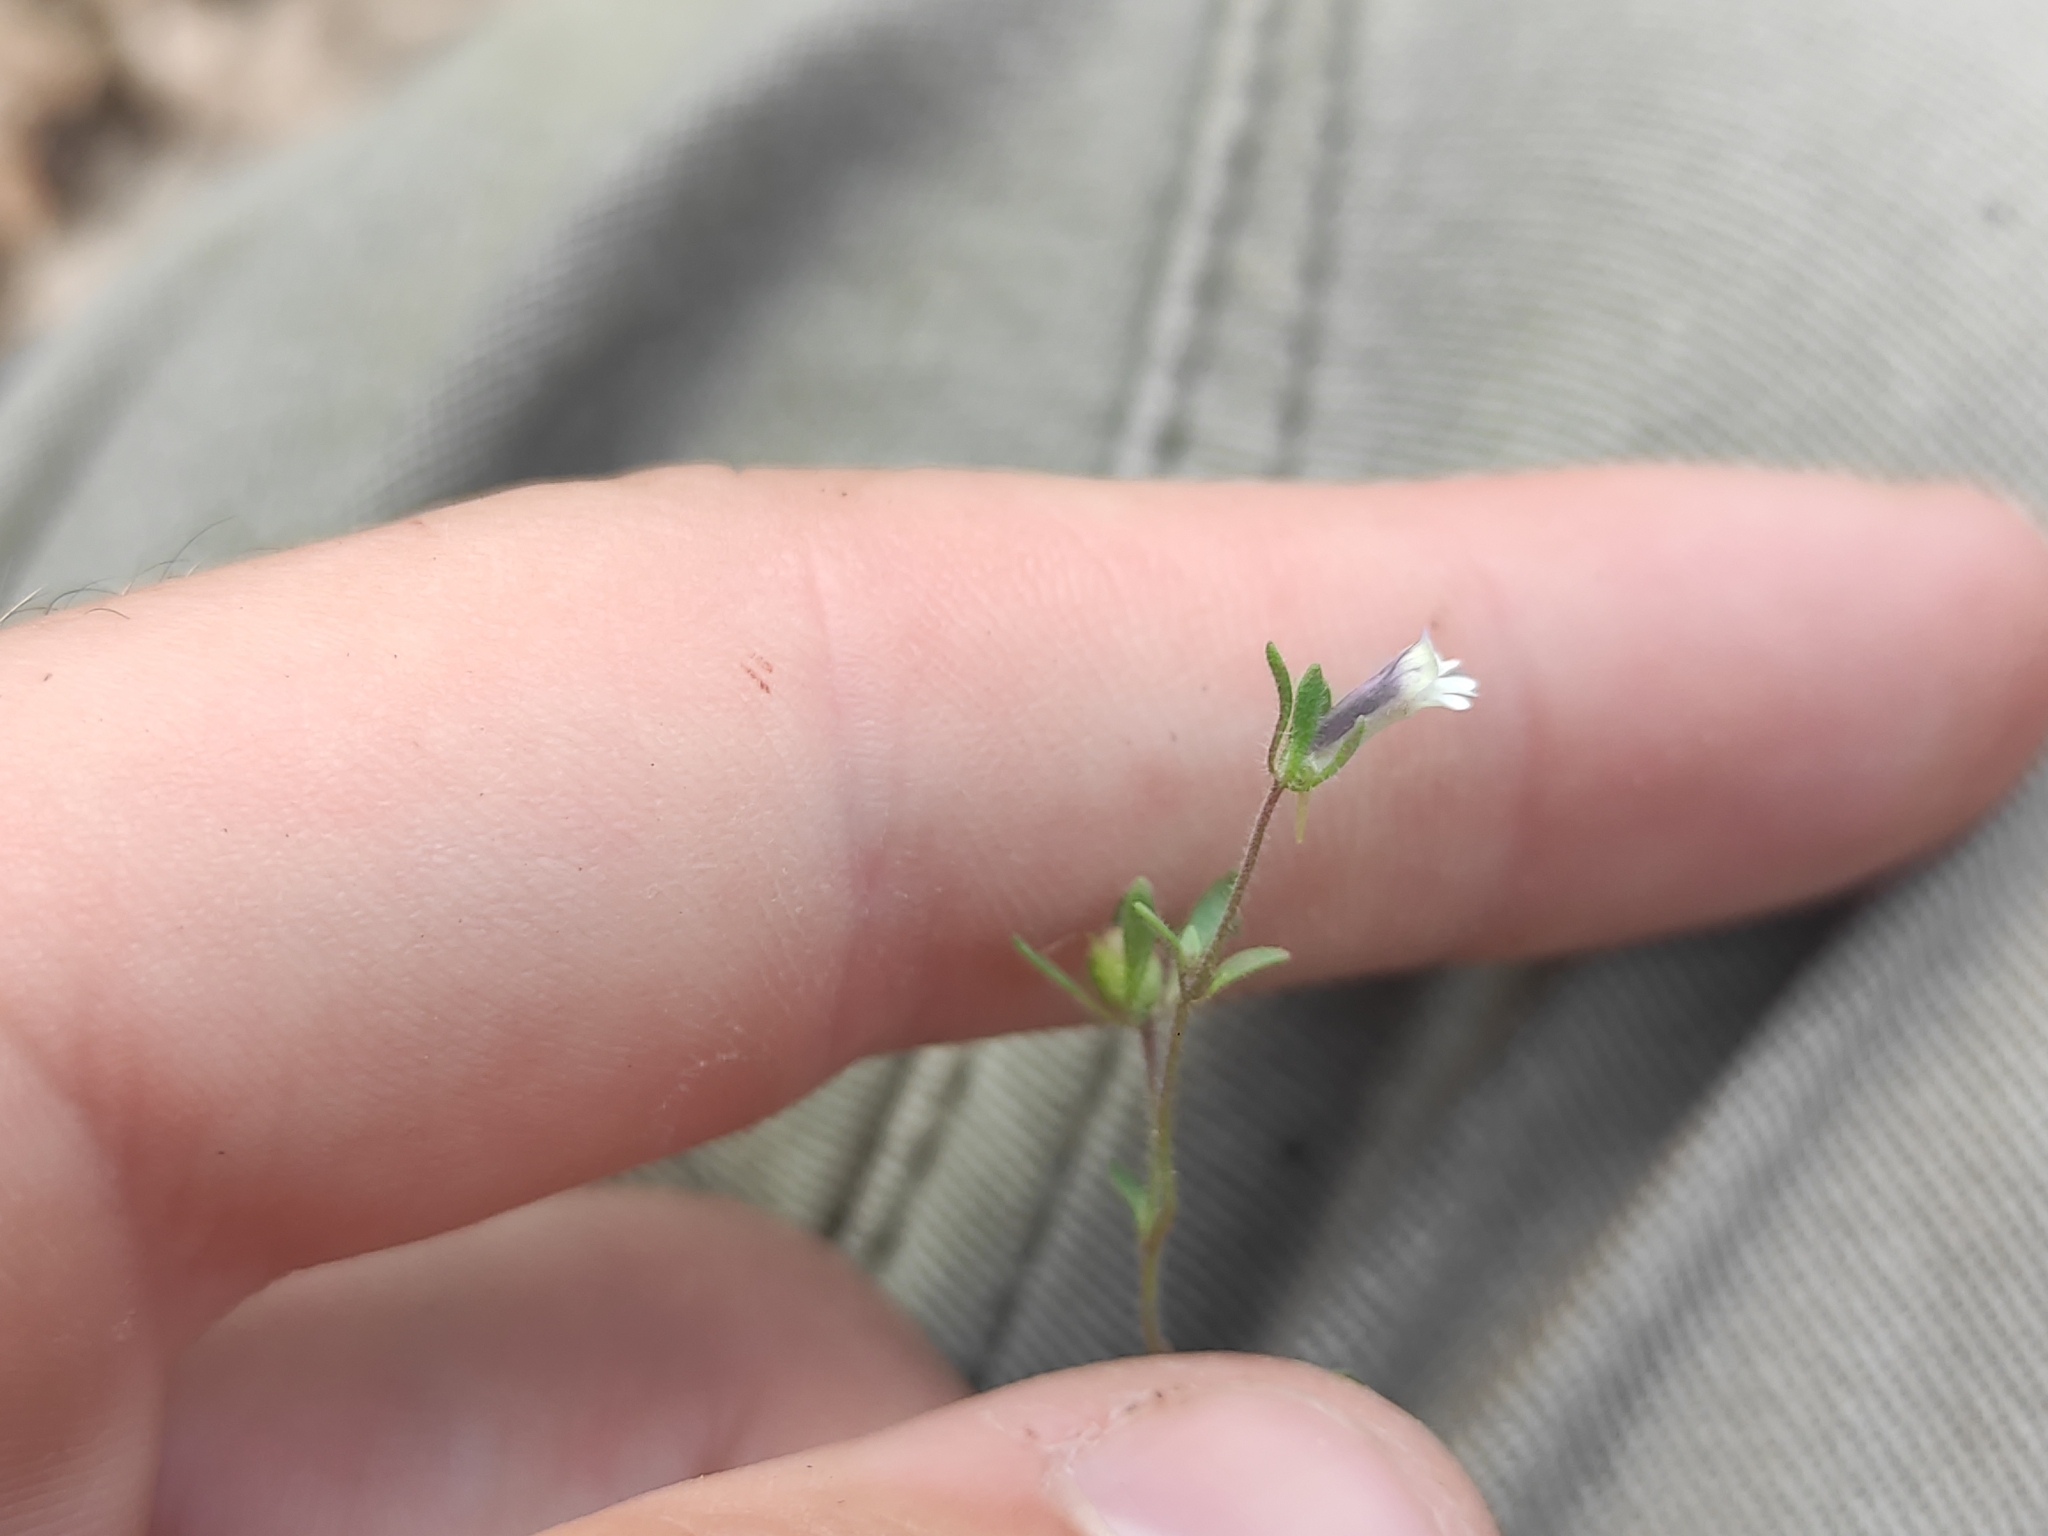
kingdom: Plantae
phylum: Tracheophyta
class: Magnoliopsida
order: Lamiales
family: Plantaginaceae
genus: Chaenorhinum
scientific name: Chaenorhinum minus
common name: Dwarf snapdragon
